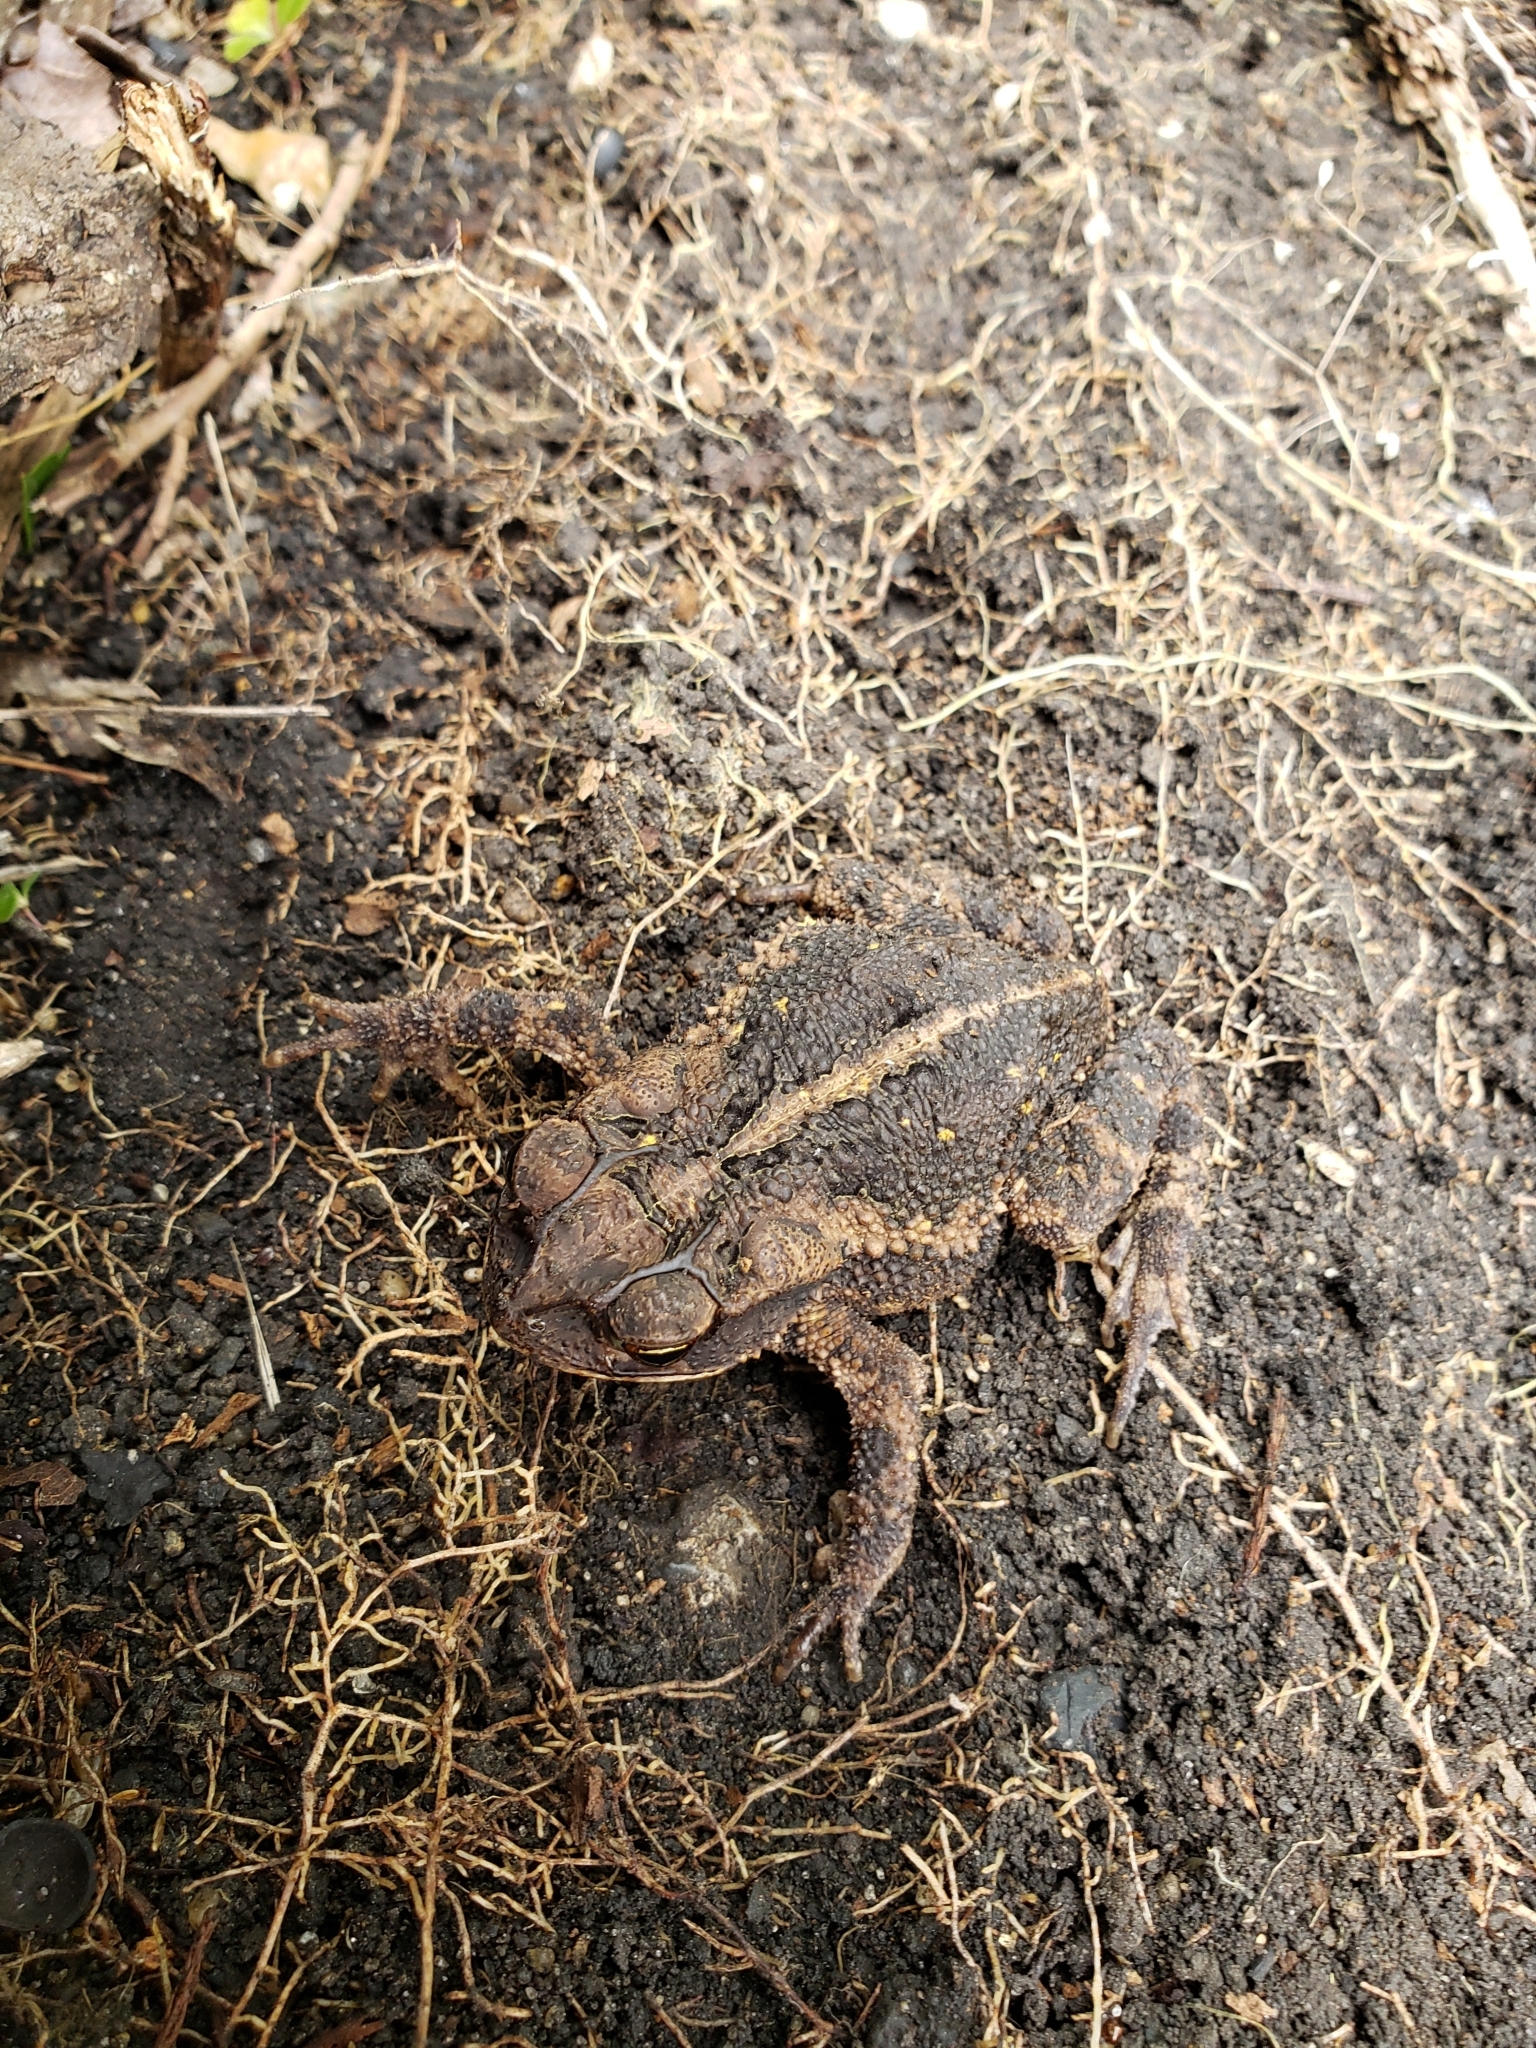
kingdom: Animalia
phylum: Chordata
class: Amphibia
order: Anura
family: Bufonidae
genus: Incilius
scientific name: Incilius nebulifer
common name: Gulf coast toad
